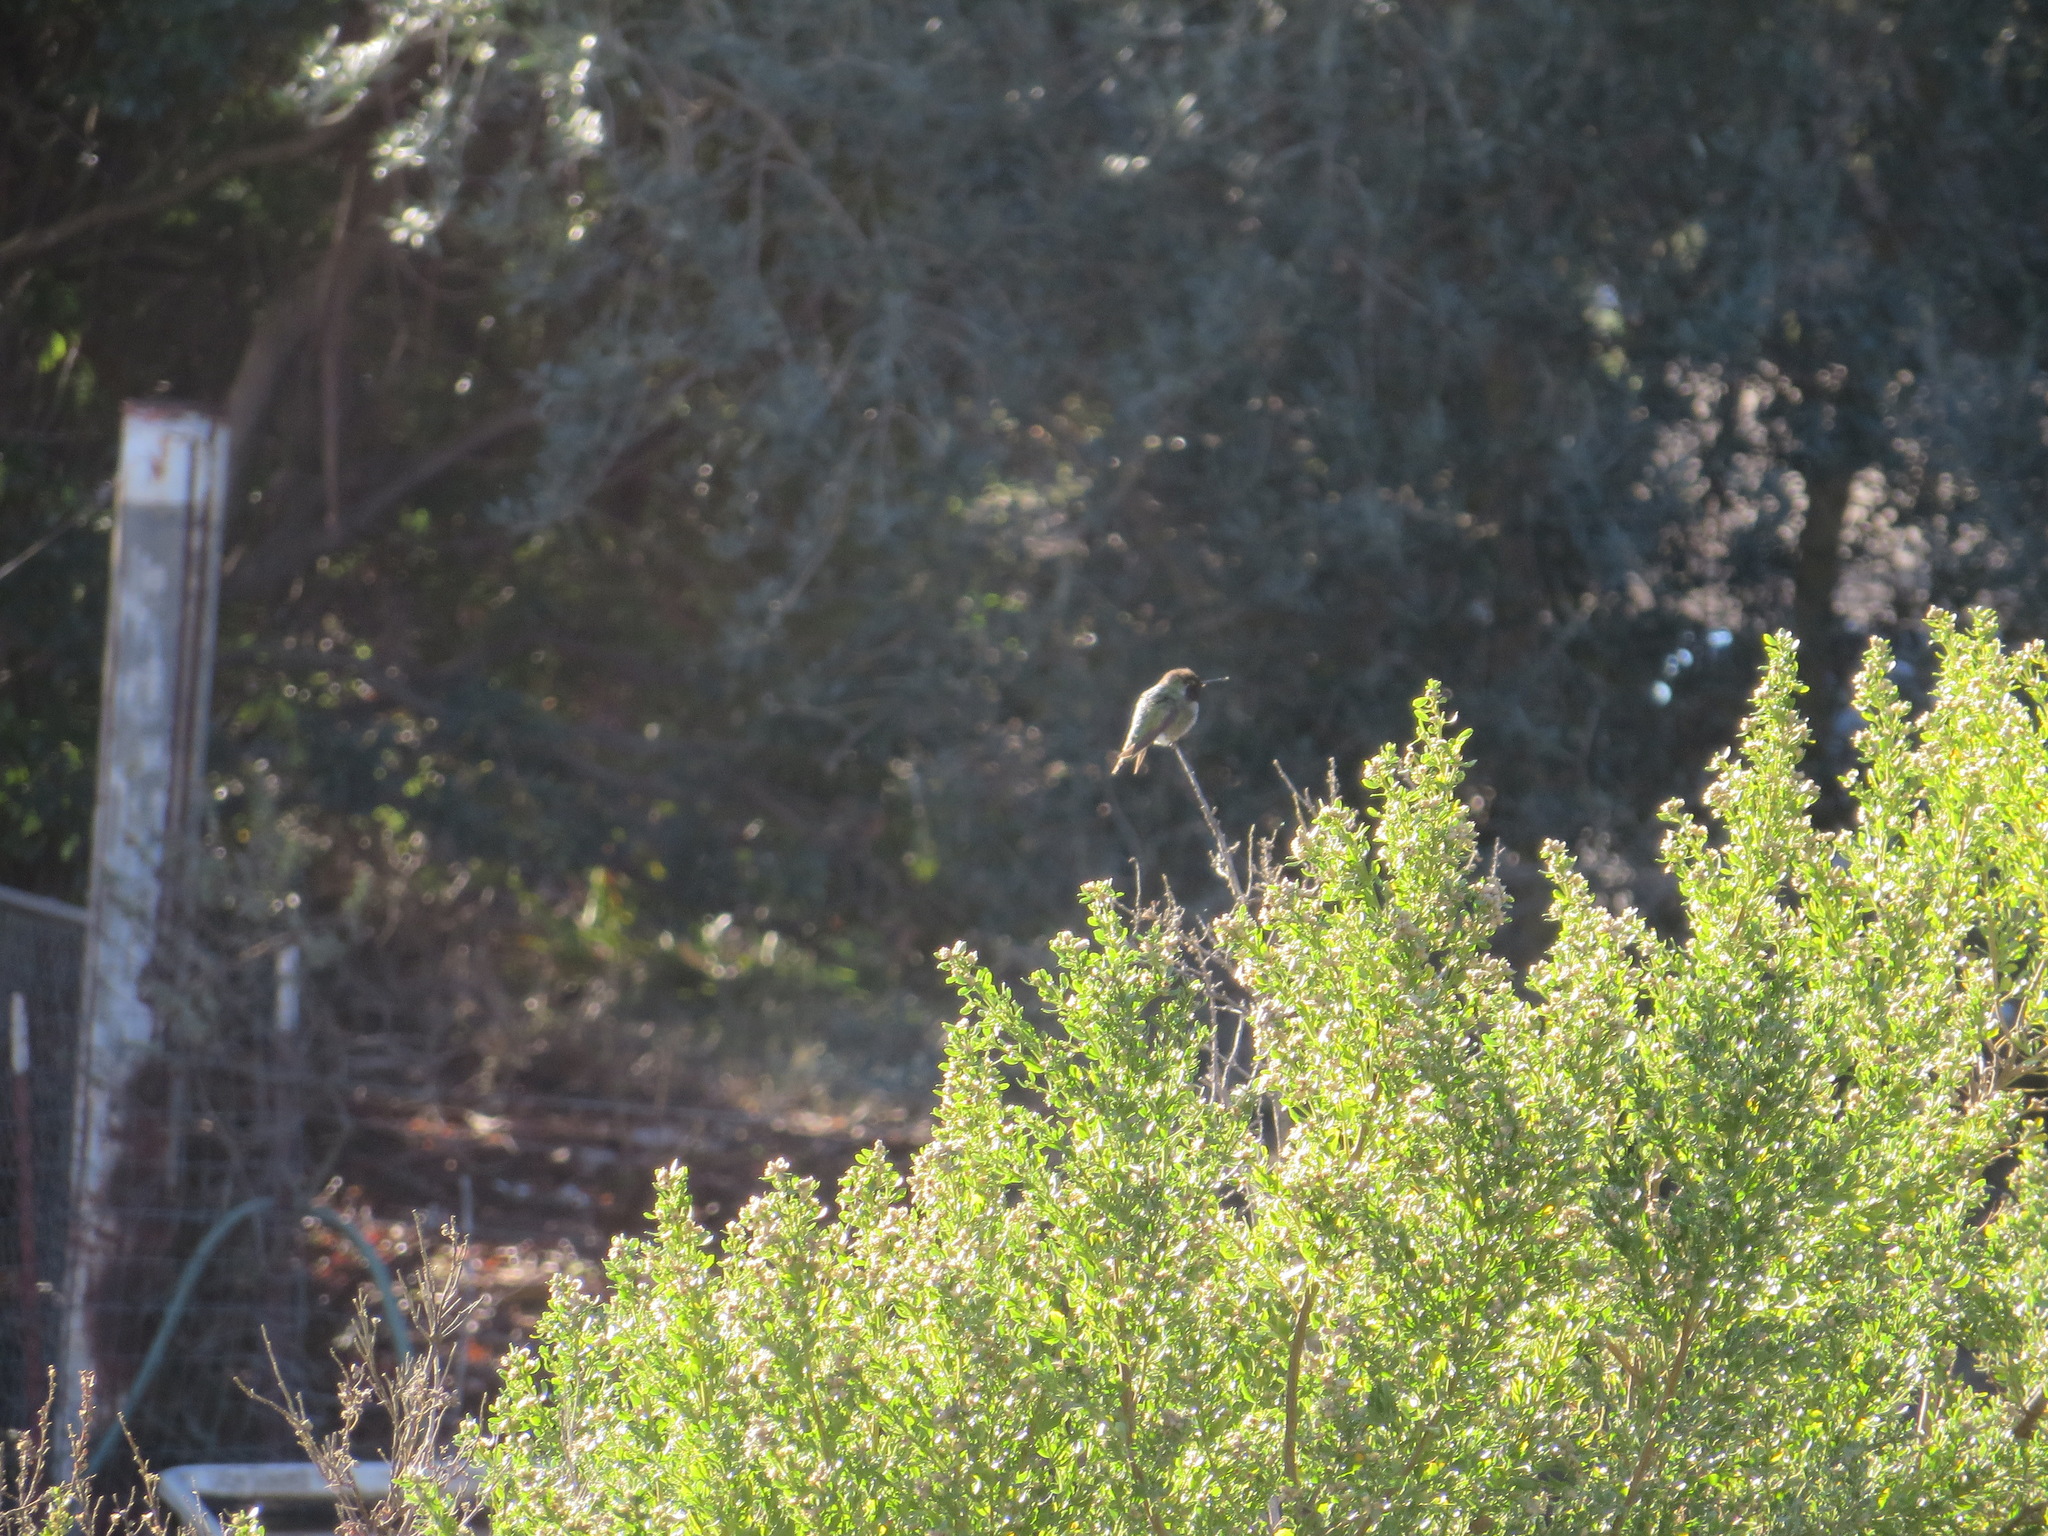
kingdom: Animalia
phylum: Chordata
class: Aves
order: Apodiformes
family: Trochilidae
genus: Calypte
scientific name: Calypte anna
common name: Anna's hummingbird
